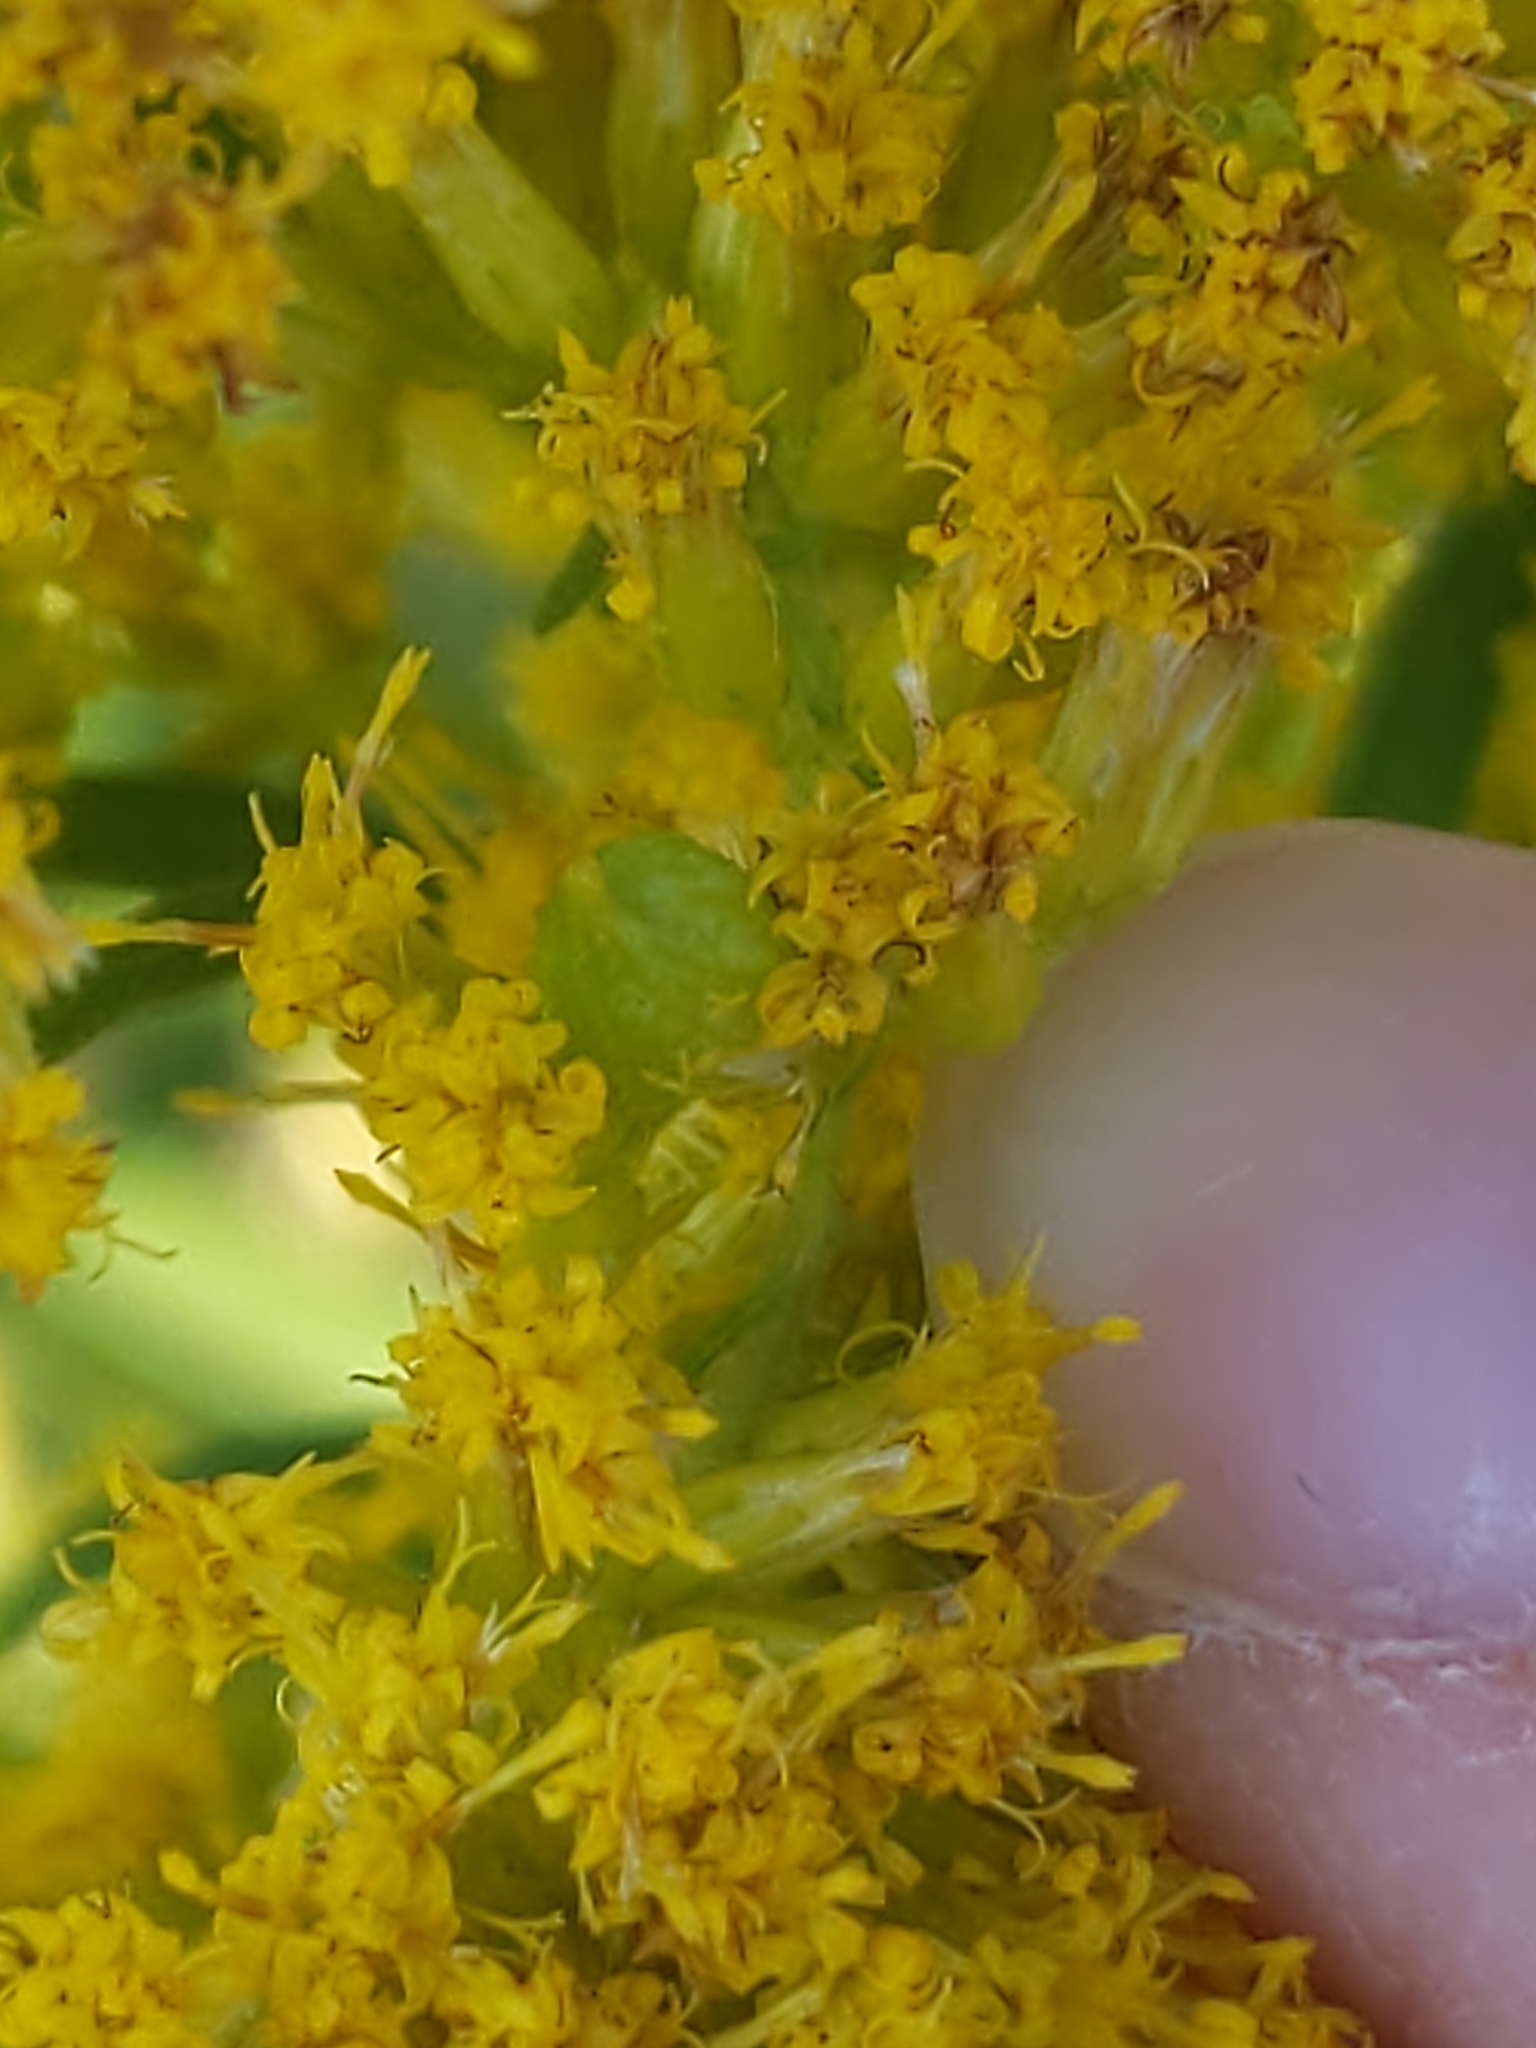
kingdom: Animalia
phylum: Arthropoda
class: Insecta
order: Diptera
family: Cecidomyiidae
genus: Schizomyia
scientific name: Schizomyia racemicola
